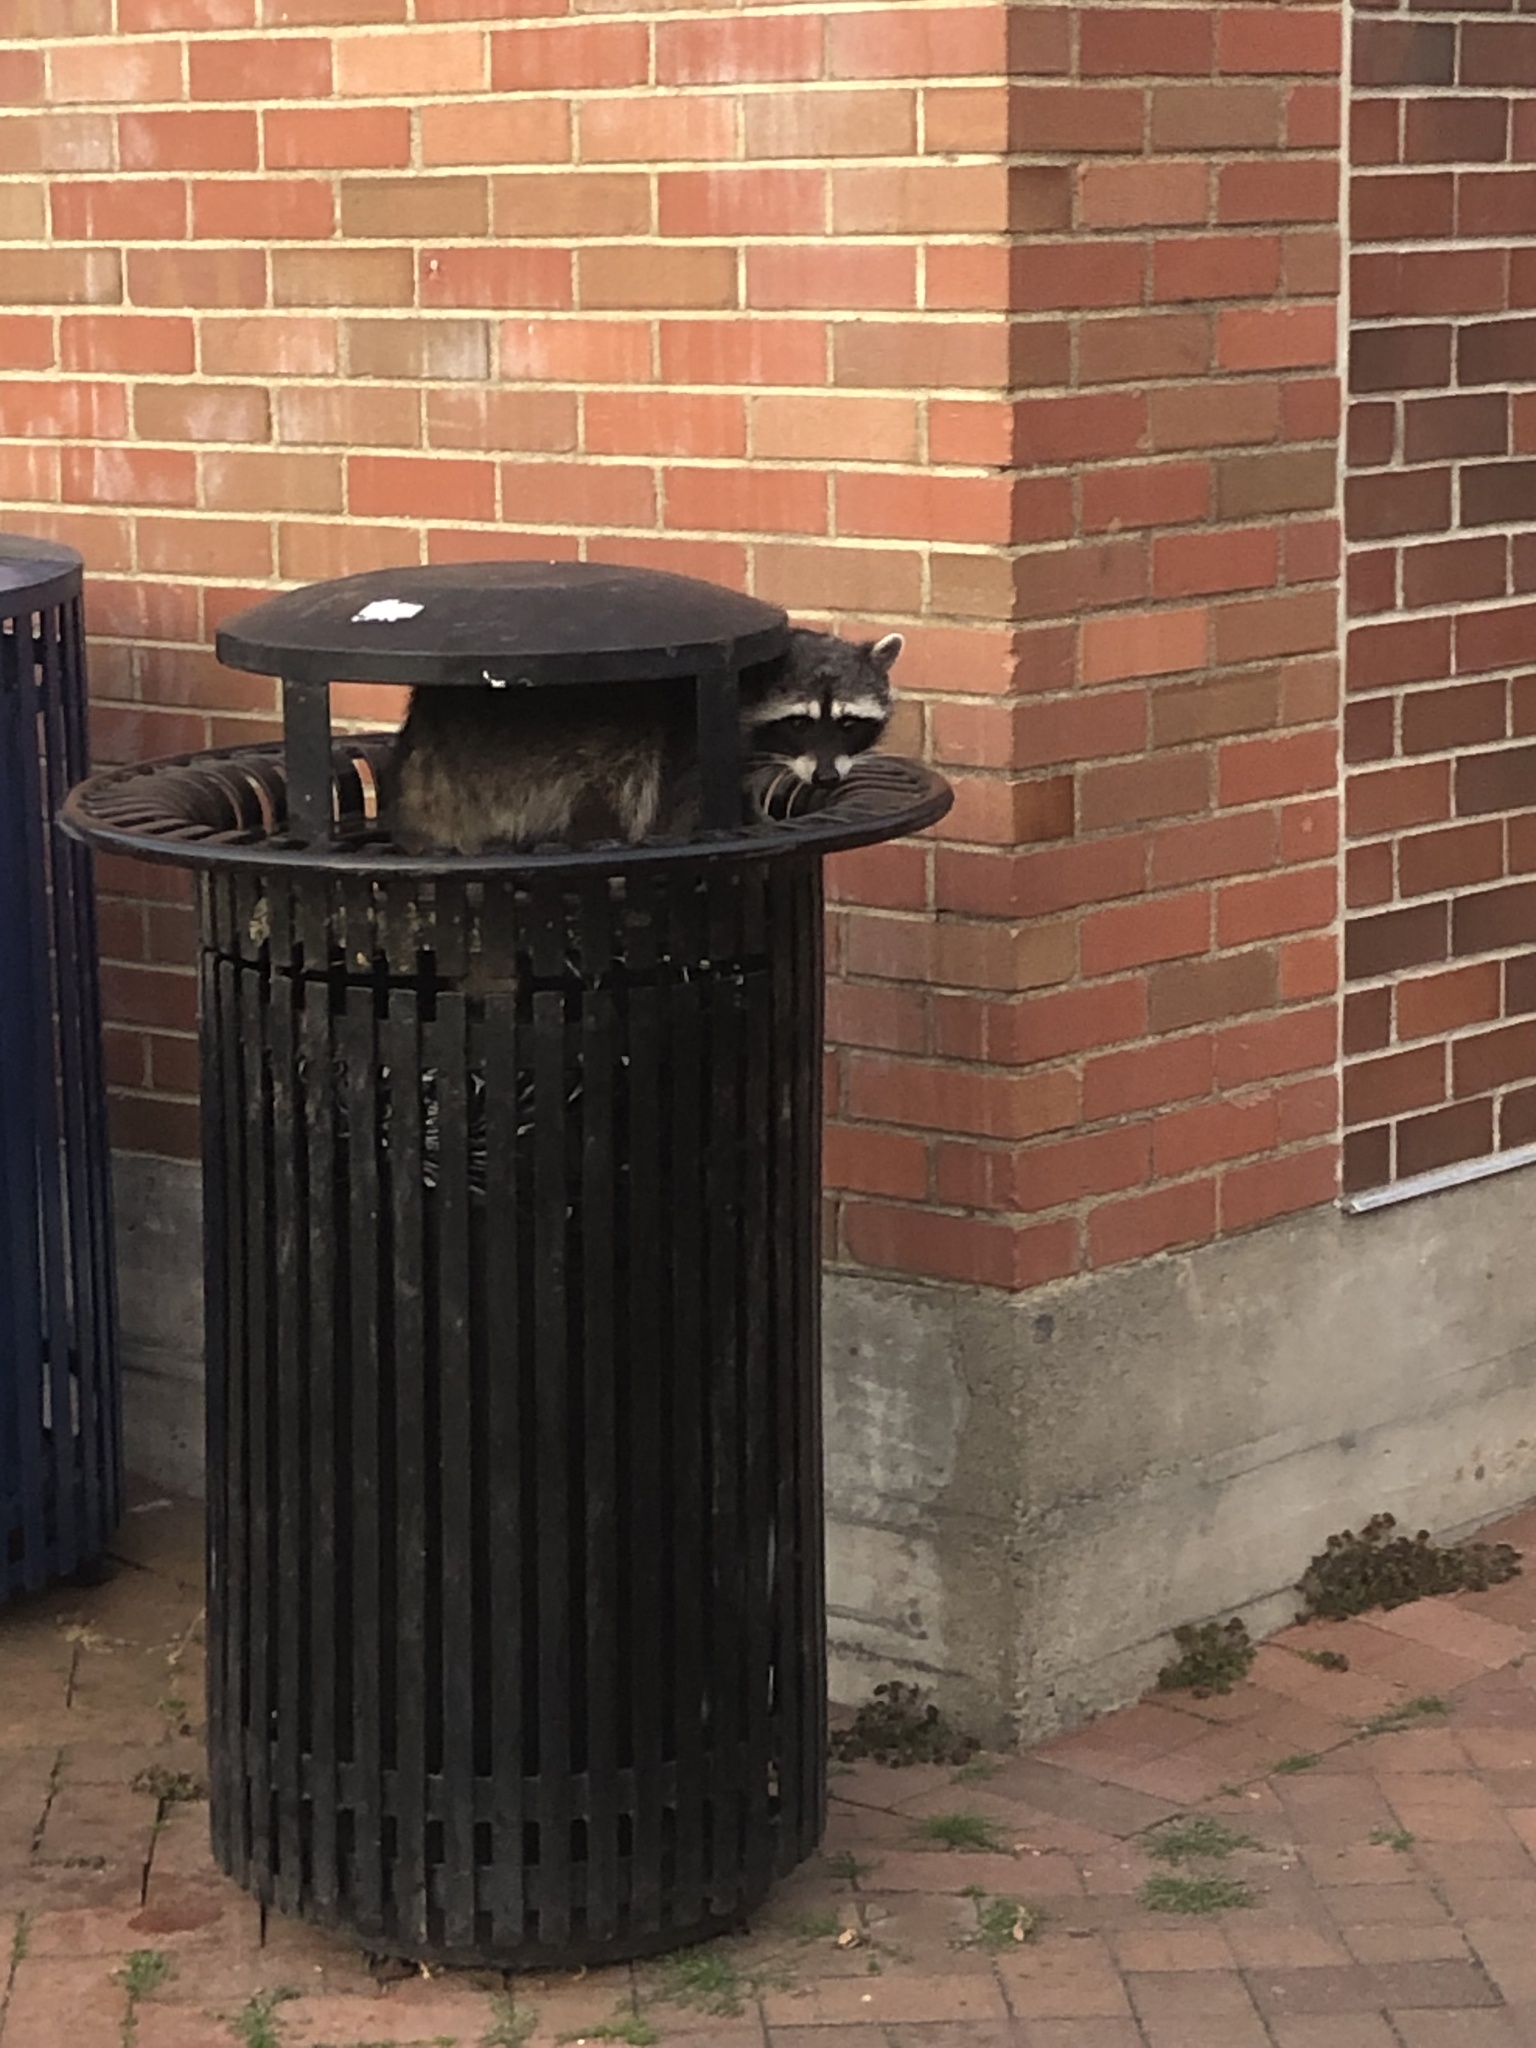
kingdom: Animalia
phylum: Chordata
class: Mammalia
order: Carnivora
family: Procyonidae
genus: Procyon
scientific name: Procyon lotor
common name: Raccoon
